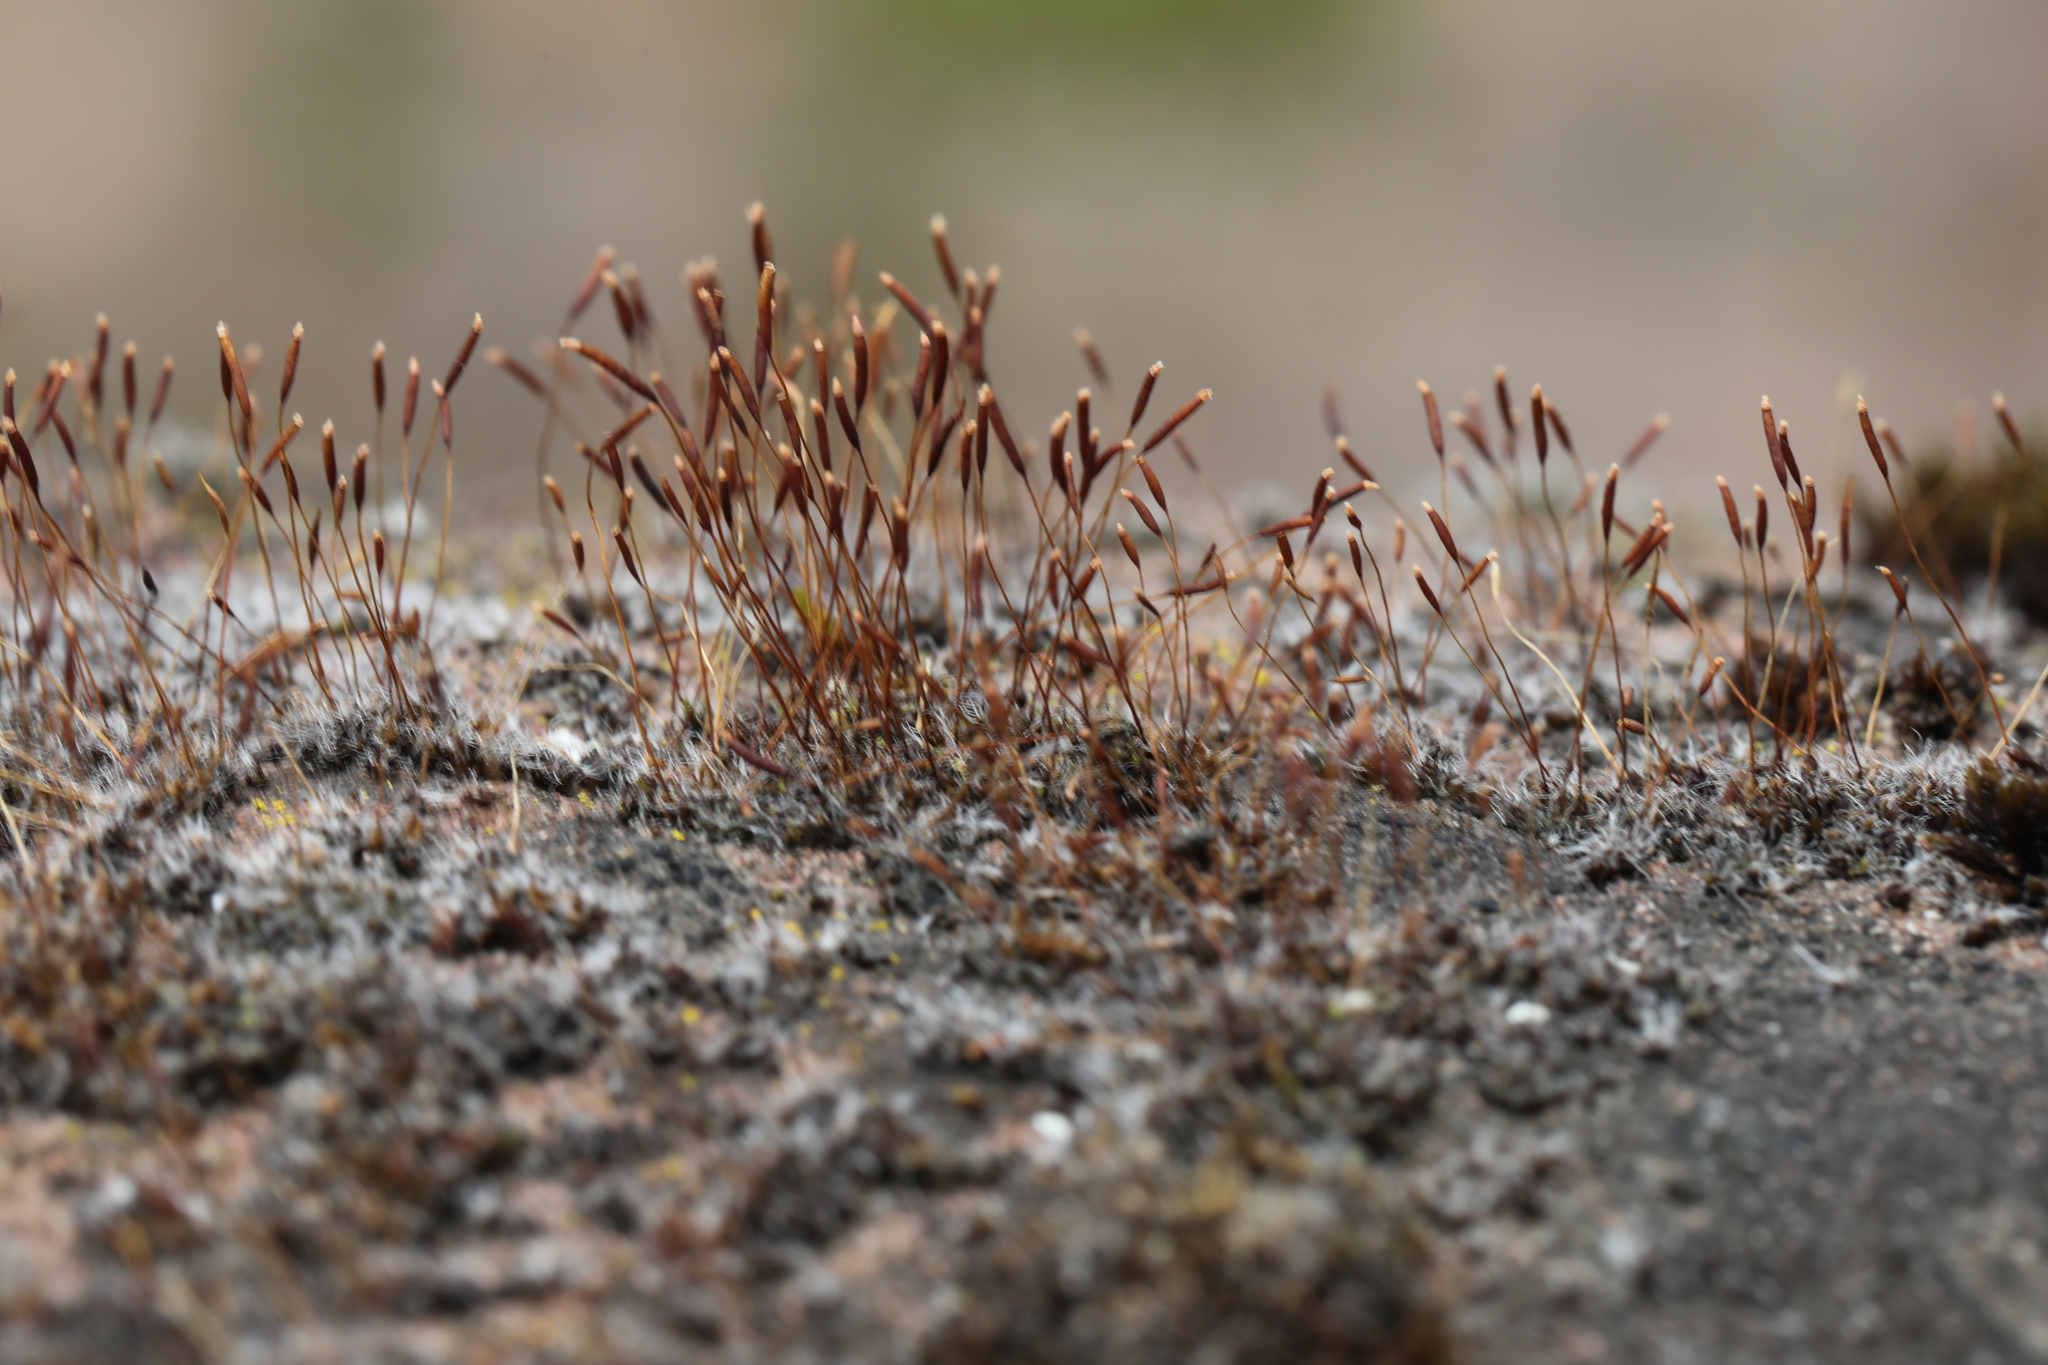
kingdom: Plantae
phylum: Bryophyta
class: Bryopsida
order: Pottiales
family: Pottiaceae
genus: Tortula
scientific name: Tortula muralis
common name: Wall screw-moss
